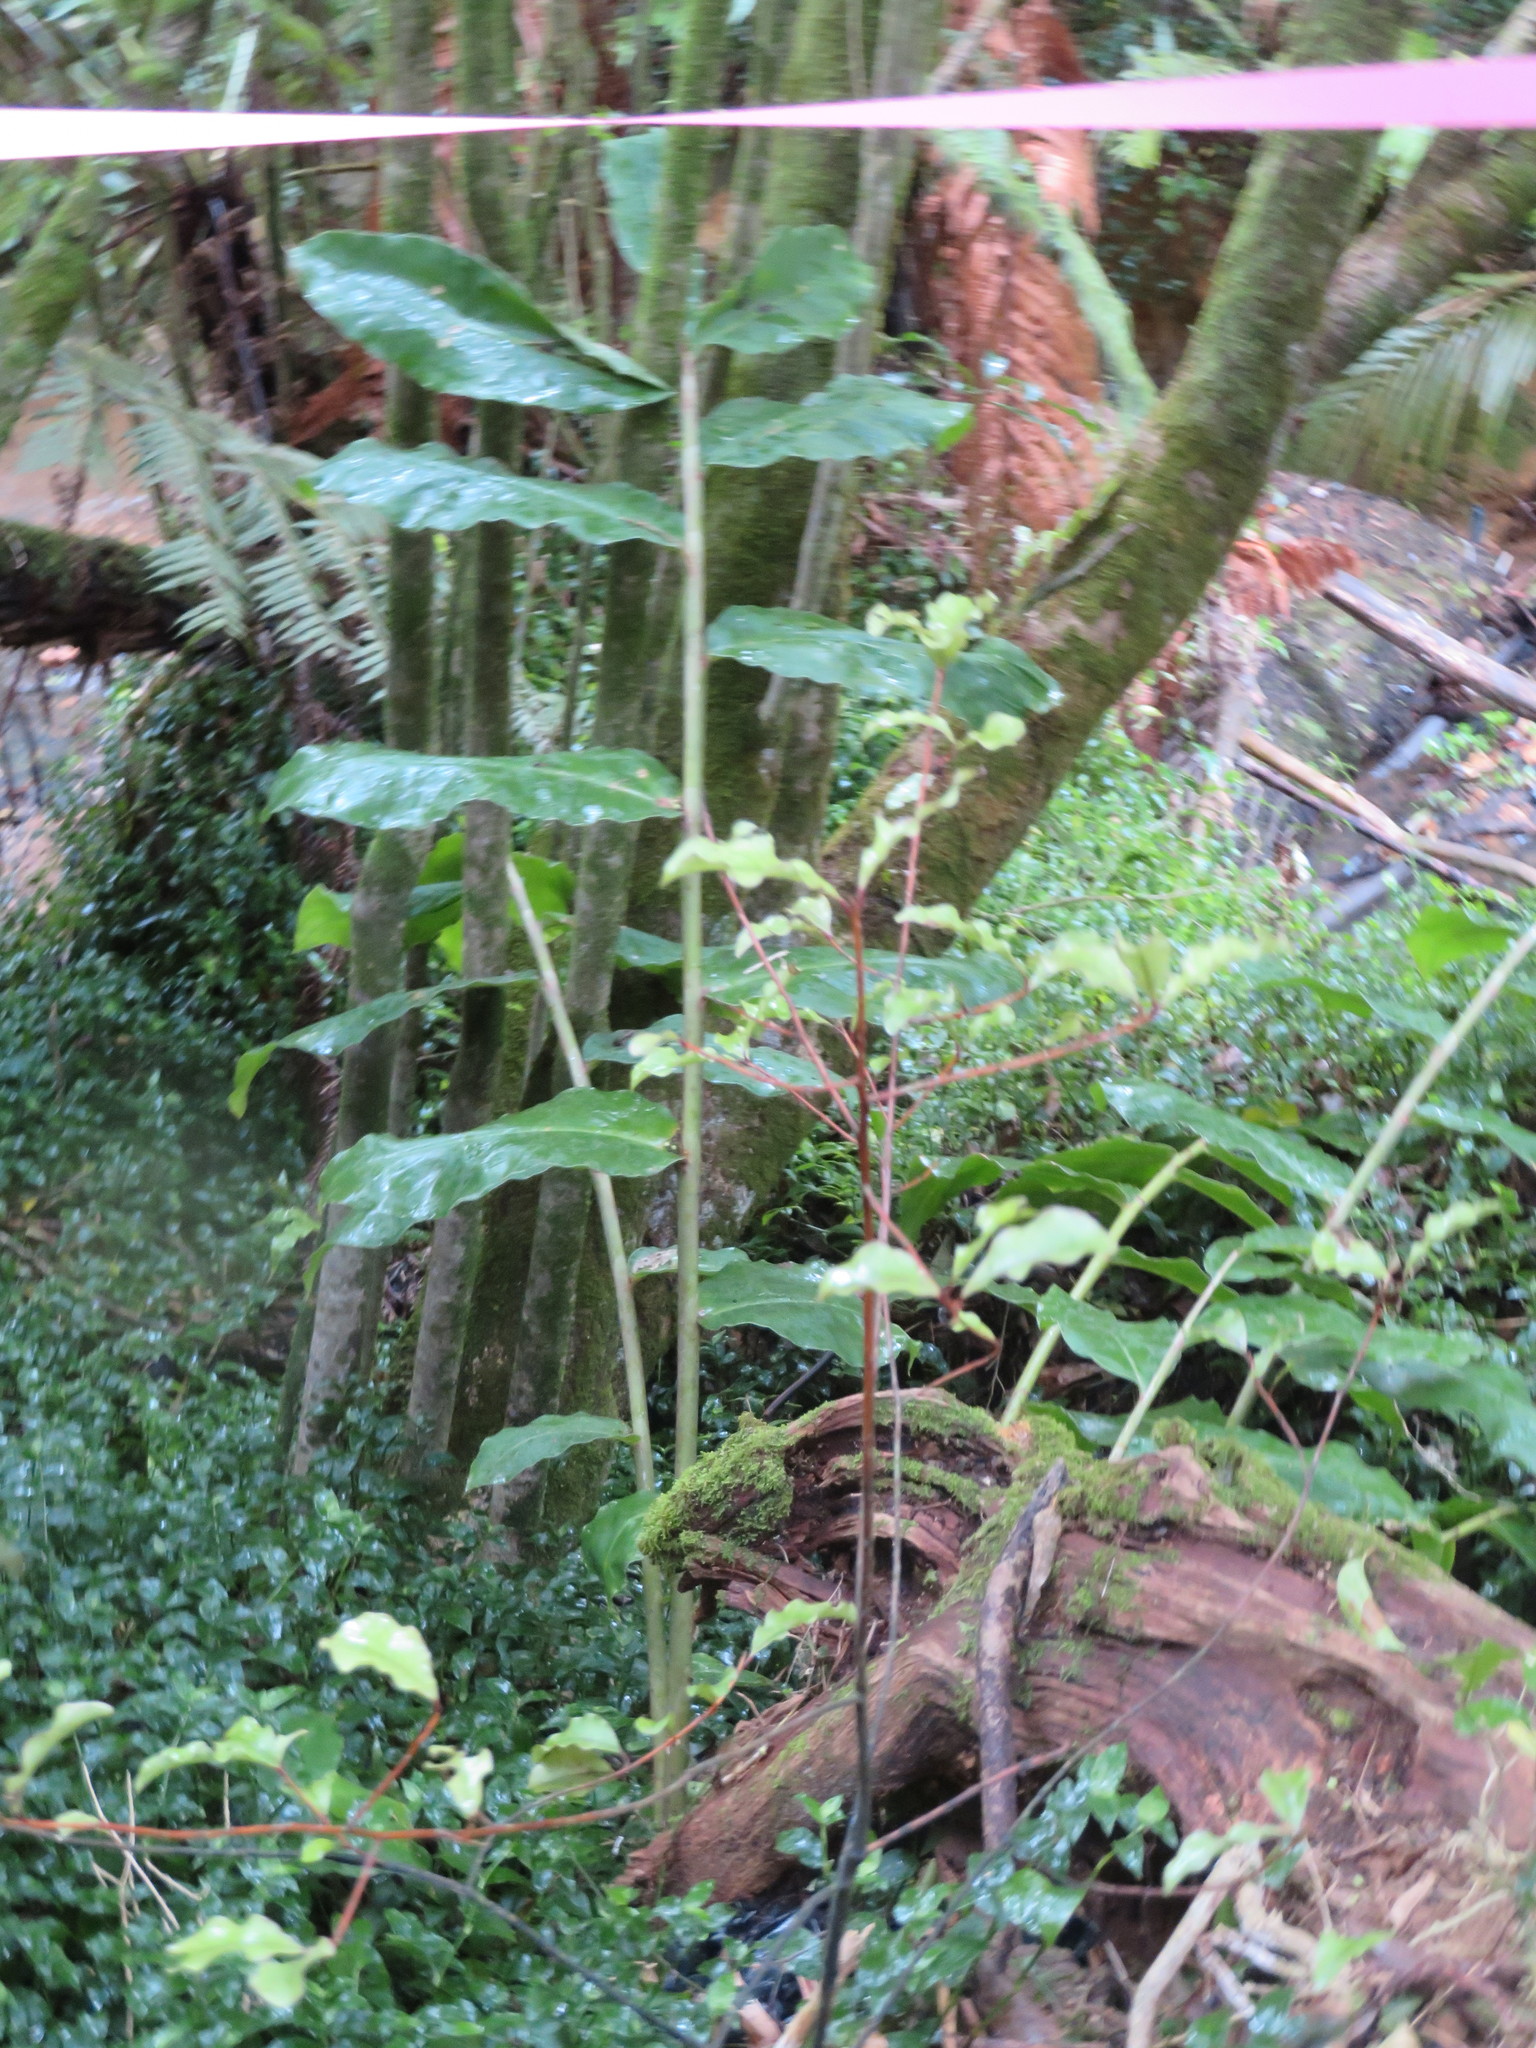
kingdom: Plantae
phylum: Tracheophyta
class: Liliopsida
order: Zingiberales
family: Zingiberaceae
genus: Hedychium
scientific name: Hedychium gardnerianum
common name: Himalayan ginger
